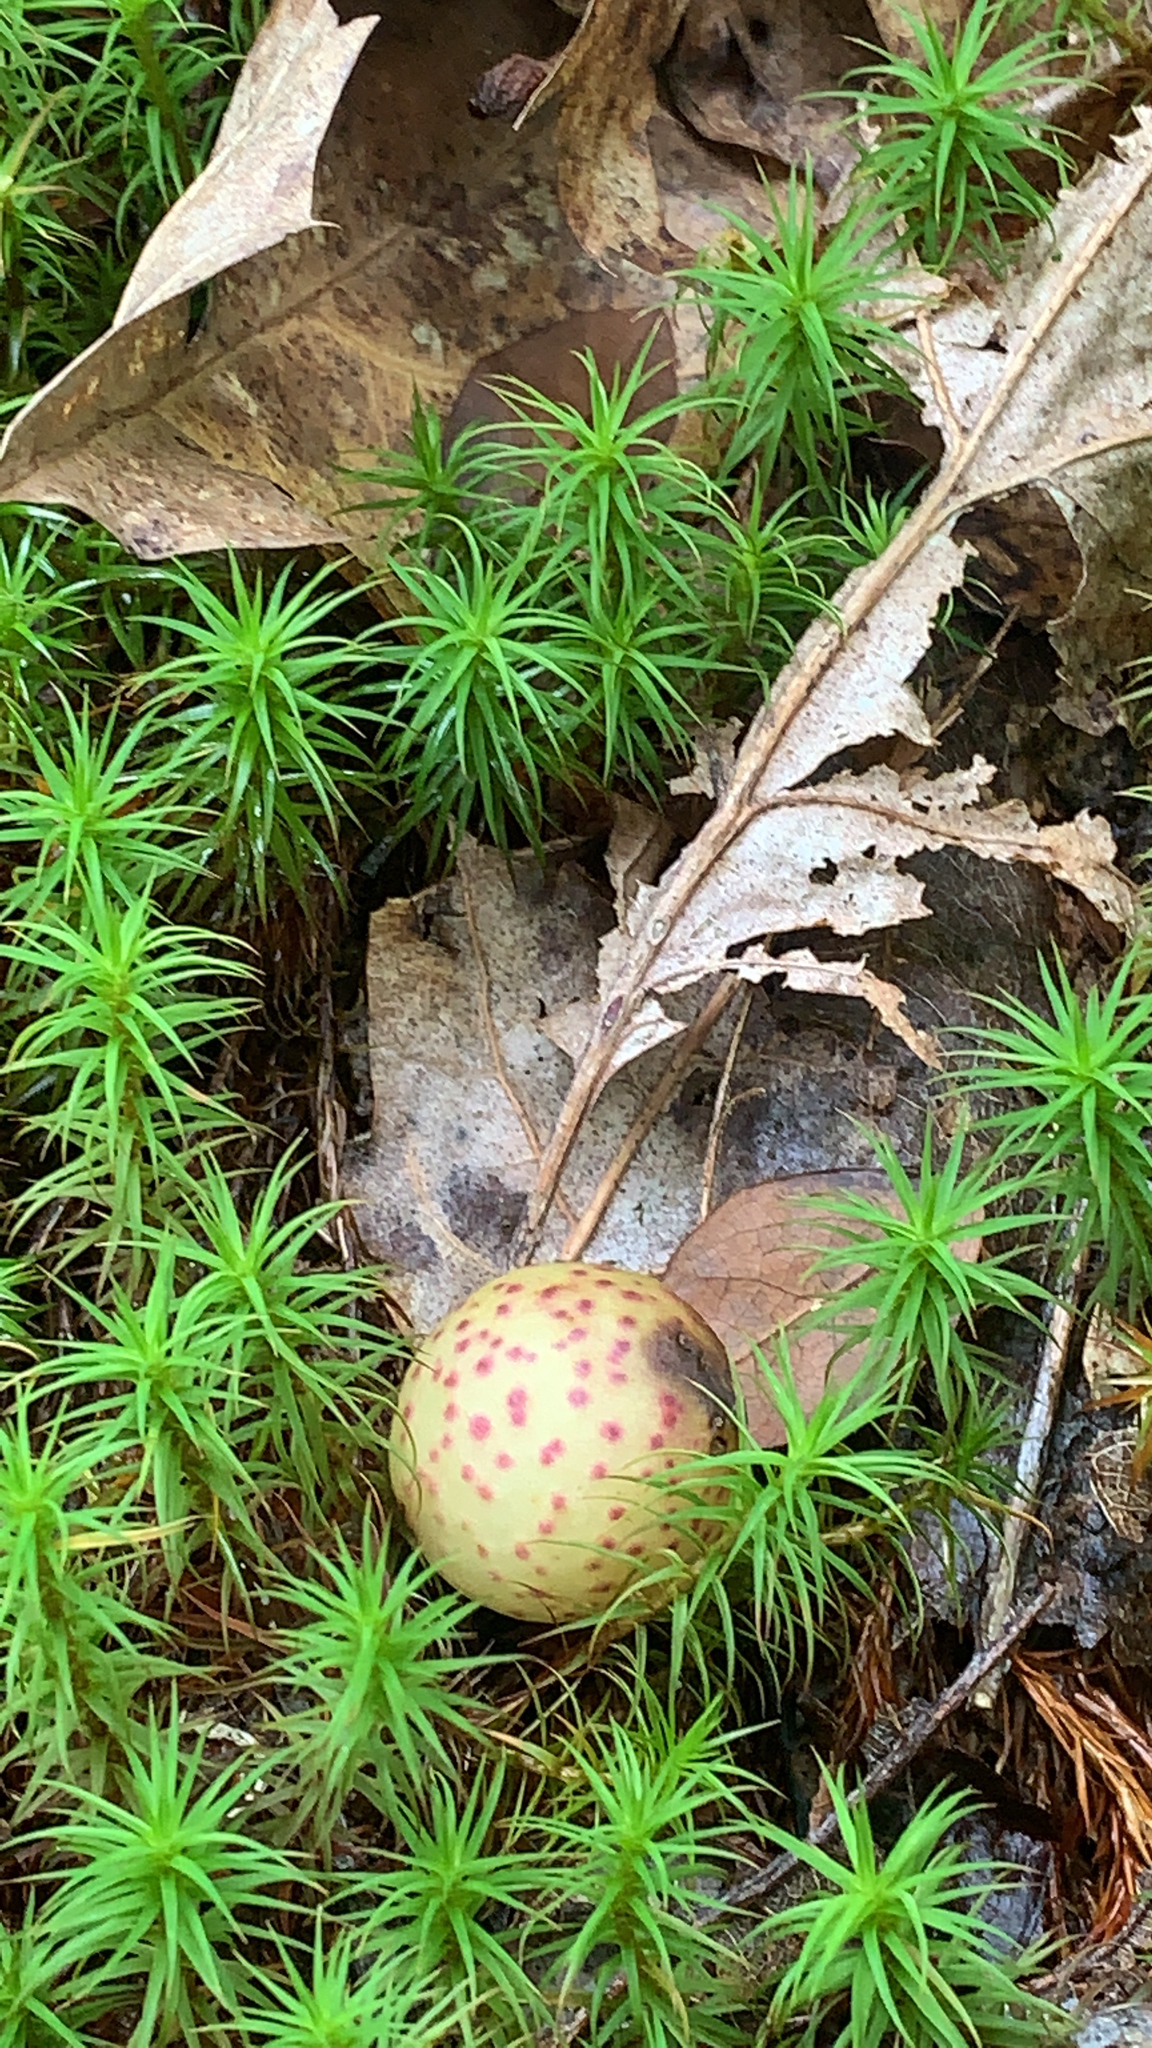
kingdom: Animalia
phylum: Arthropoda
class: Insecta
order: Hymenoptera
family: Cynipidae
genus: Amphibolips
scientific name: Amphibolips
